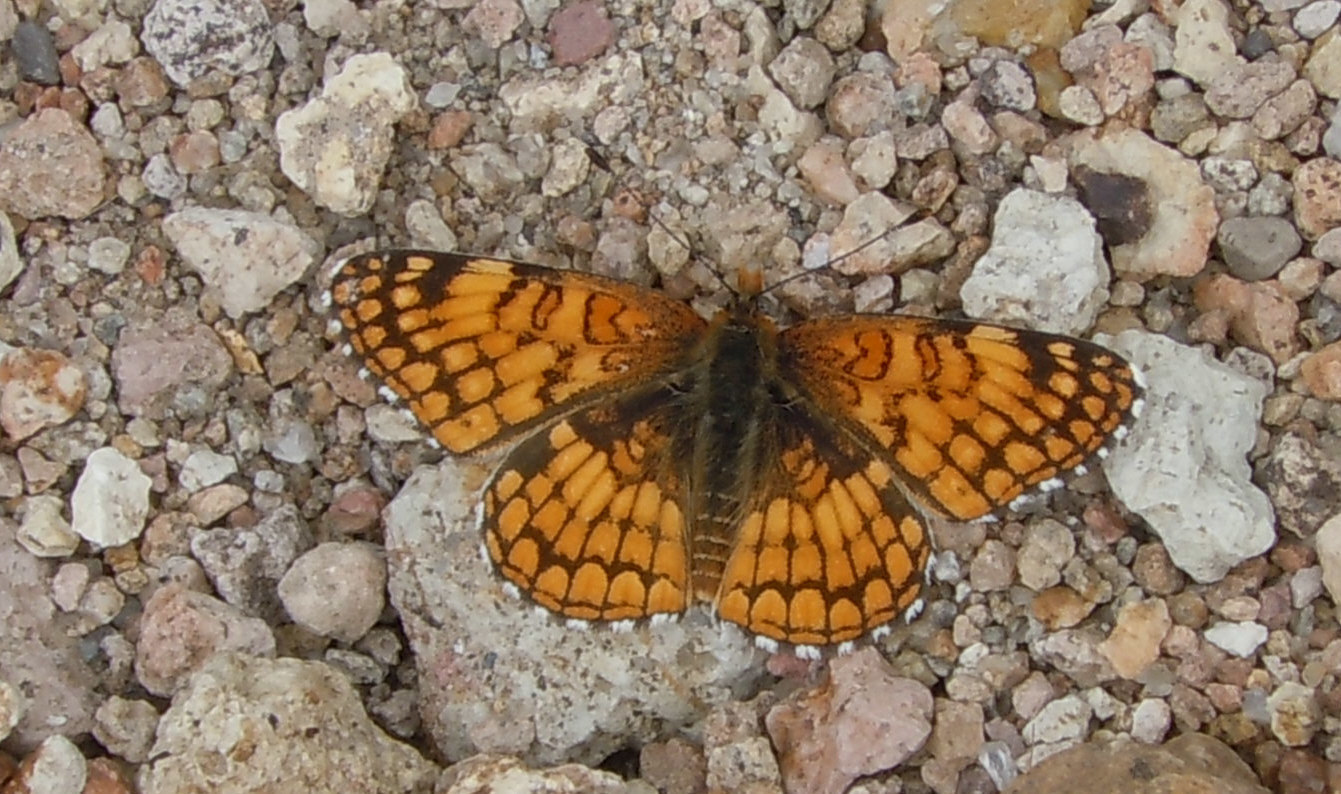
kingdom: Animalia
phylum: Arthropoda
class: Insecta
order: Lepidoptera
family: Nymphalidae
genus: Chlosyne
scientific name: Chlosyne acastus
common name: Sagebrush checkerspot
